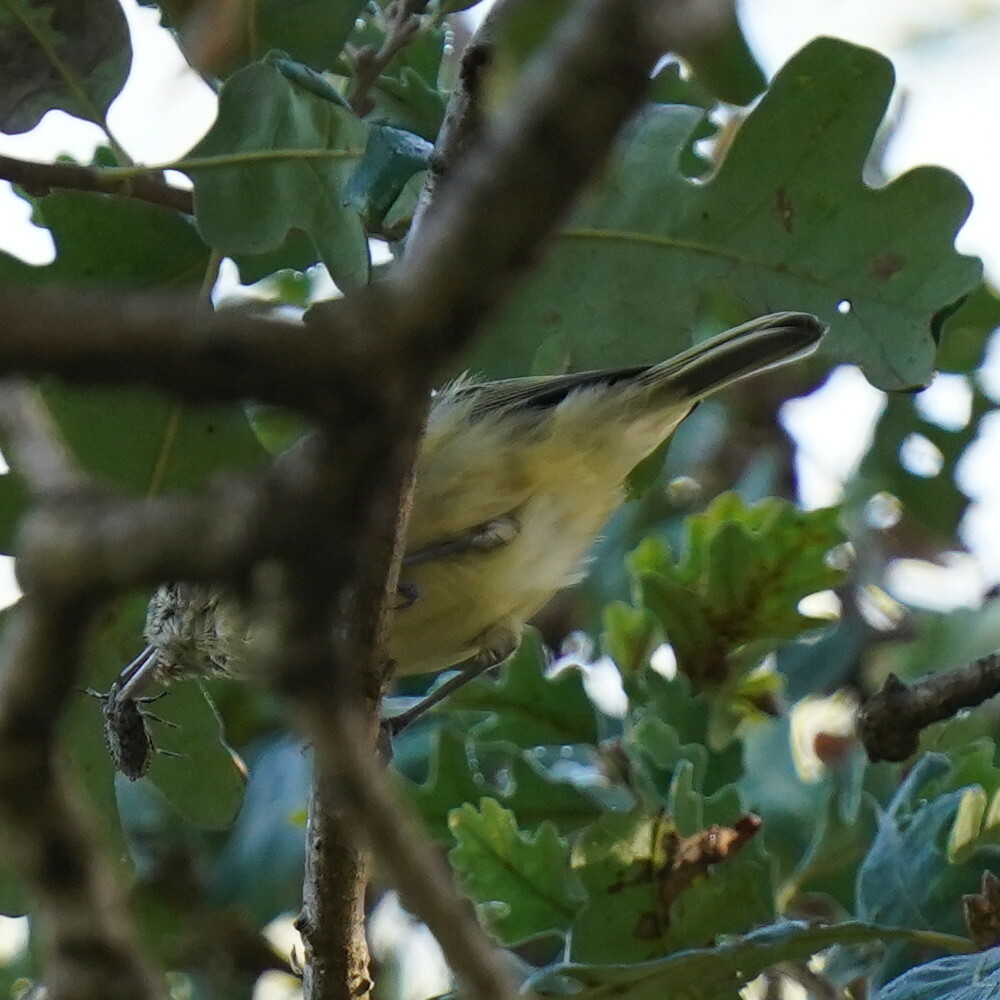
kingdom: Animalia
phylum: Chordata
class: Aves
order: Passeriformes
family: Vireonidae
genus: Vireo
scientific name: Vireo huttoni
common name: Hutton's vireo
